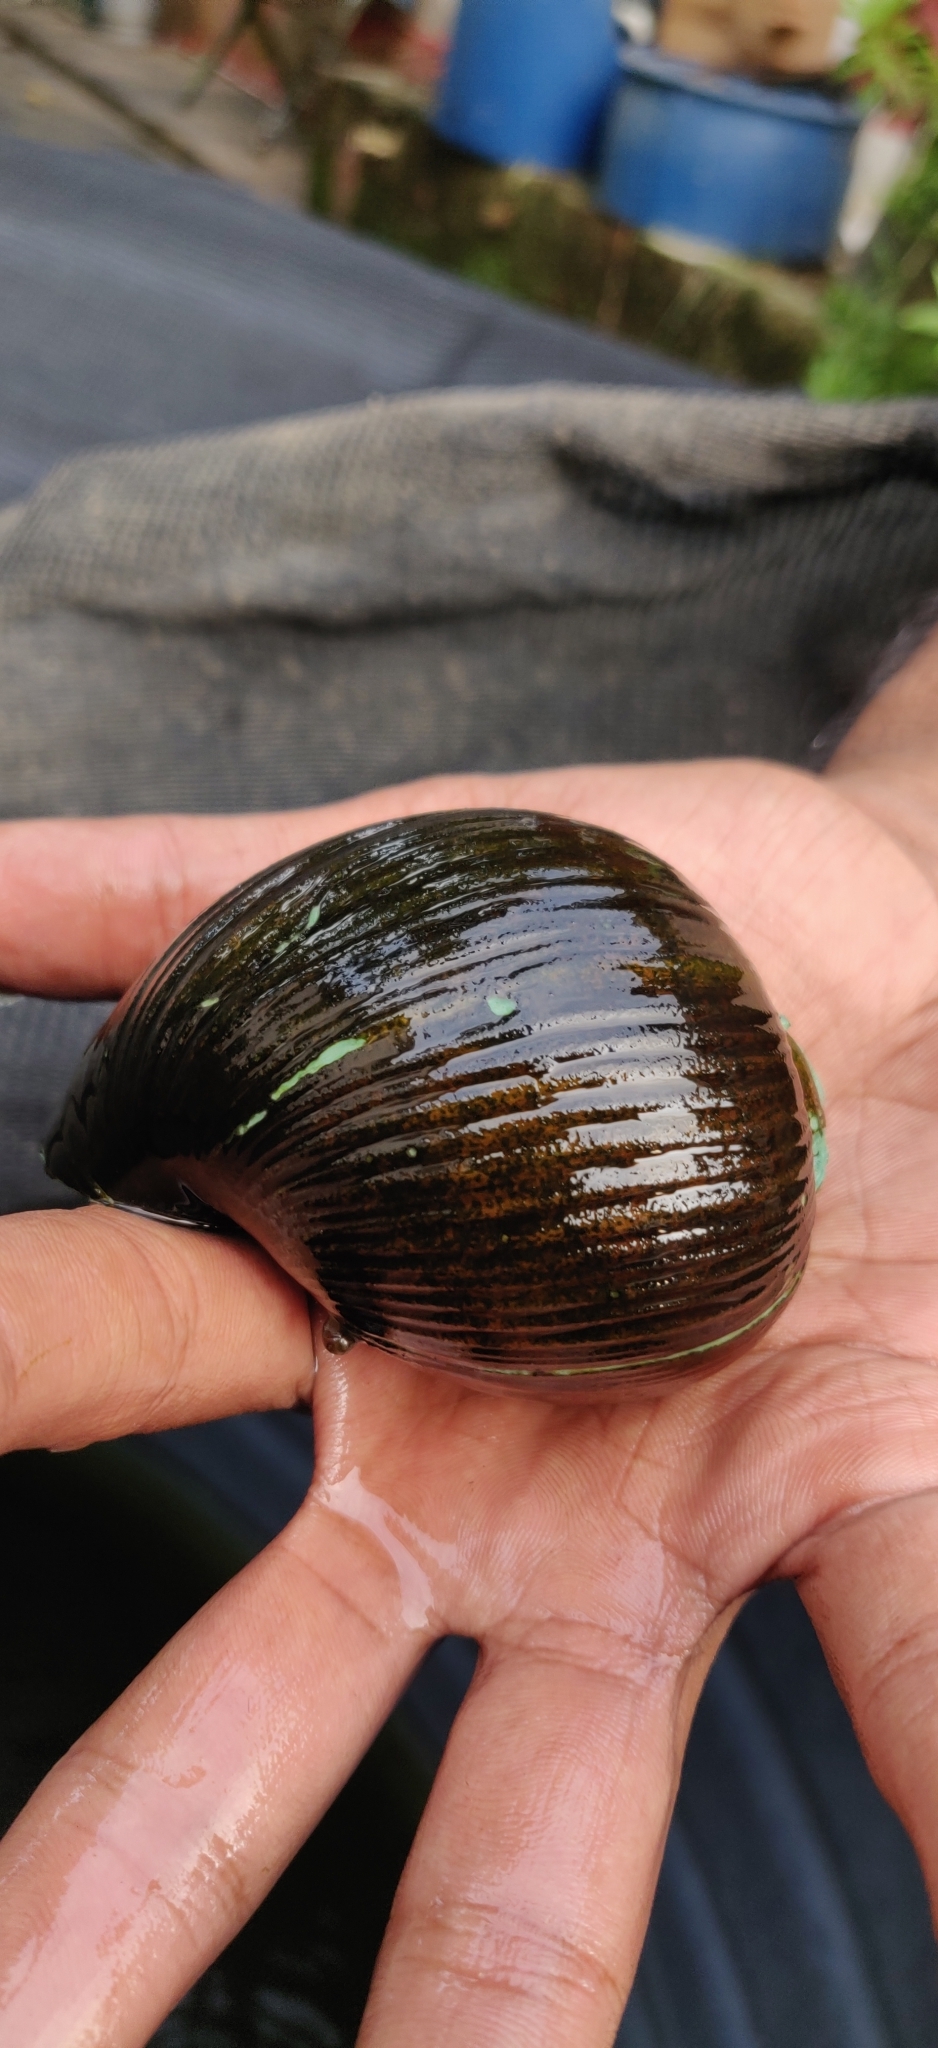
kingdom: Animalia
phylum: Mollusca
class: Gastropoda
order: Architaenioglossa
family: Ampullariidae
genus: Pomacea
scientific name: Pomacea urceus
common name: Black conch
